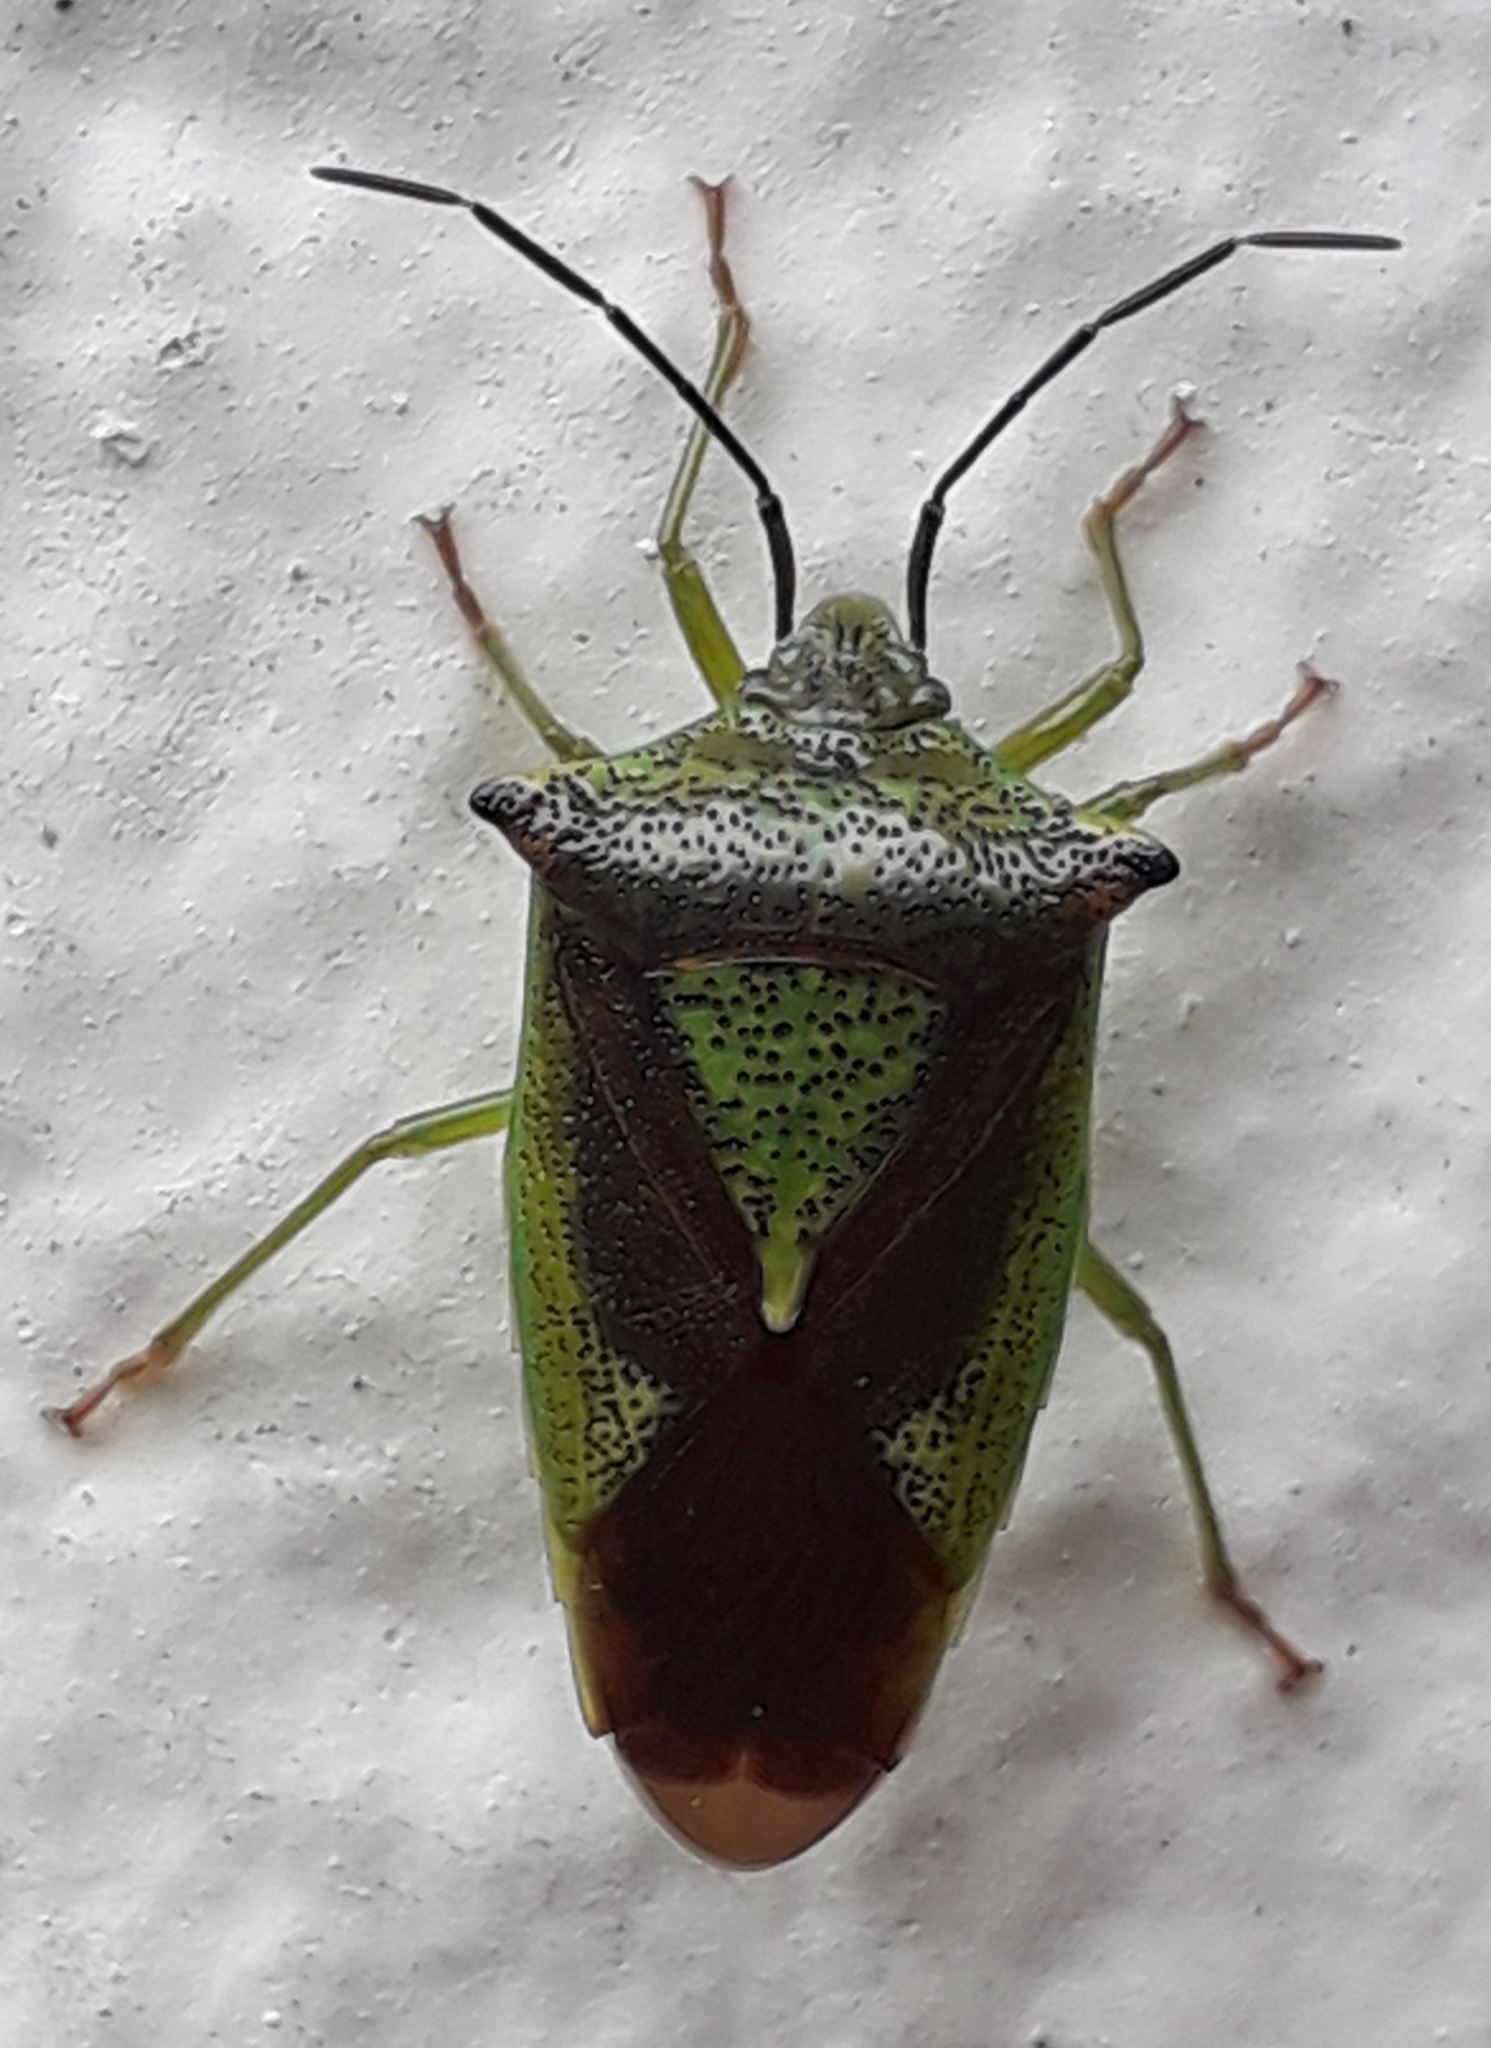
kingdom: Animalia
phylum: Arthropoda
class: Insecta
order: Hemiptera
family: Acanthosomatidae
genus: Acanthosoma
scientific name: Acanthosoma haemorrhoidale
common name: Hawthorn shieldbug
